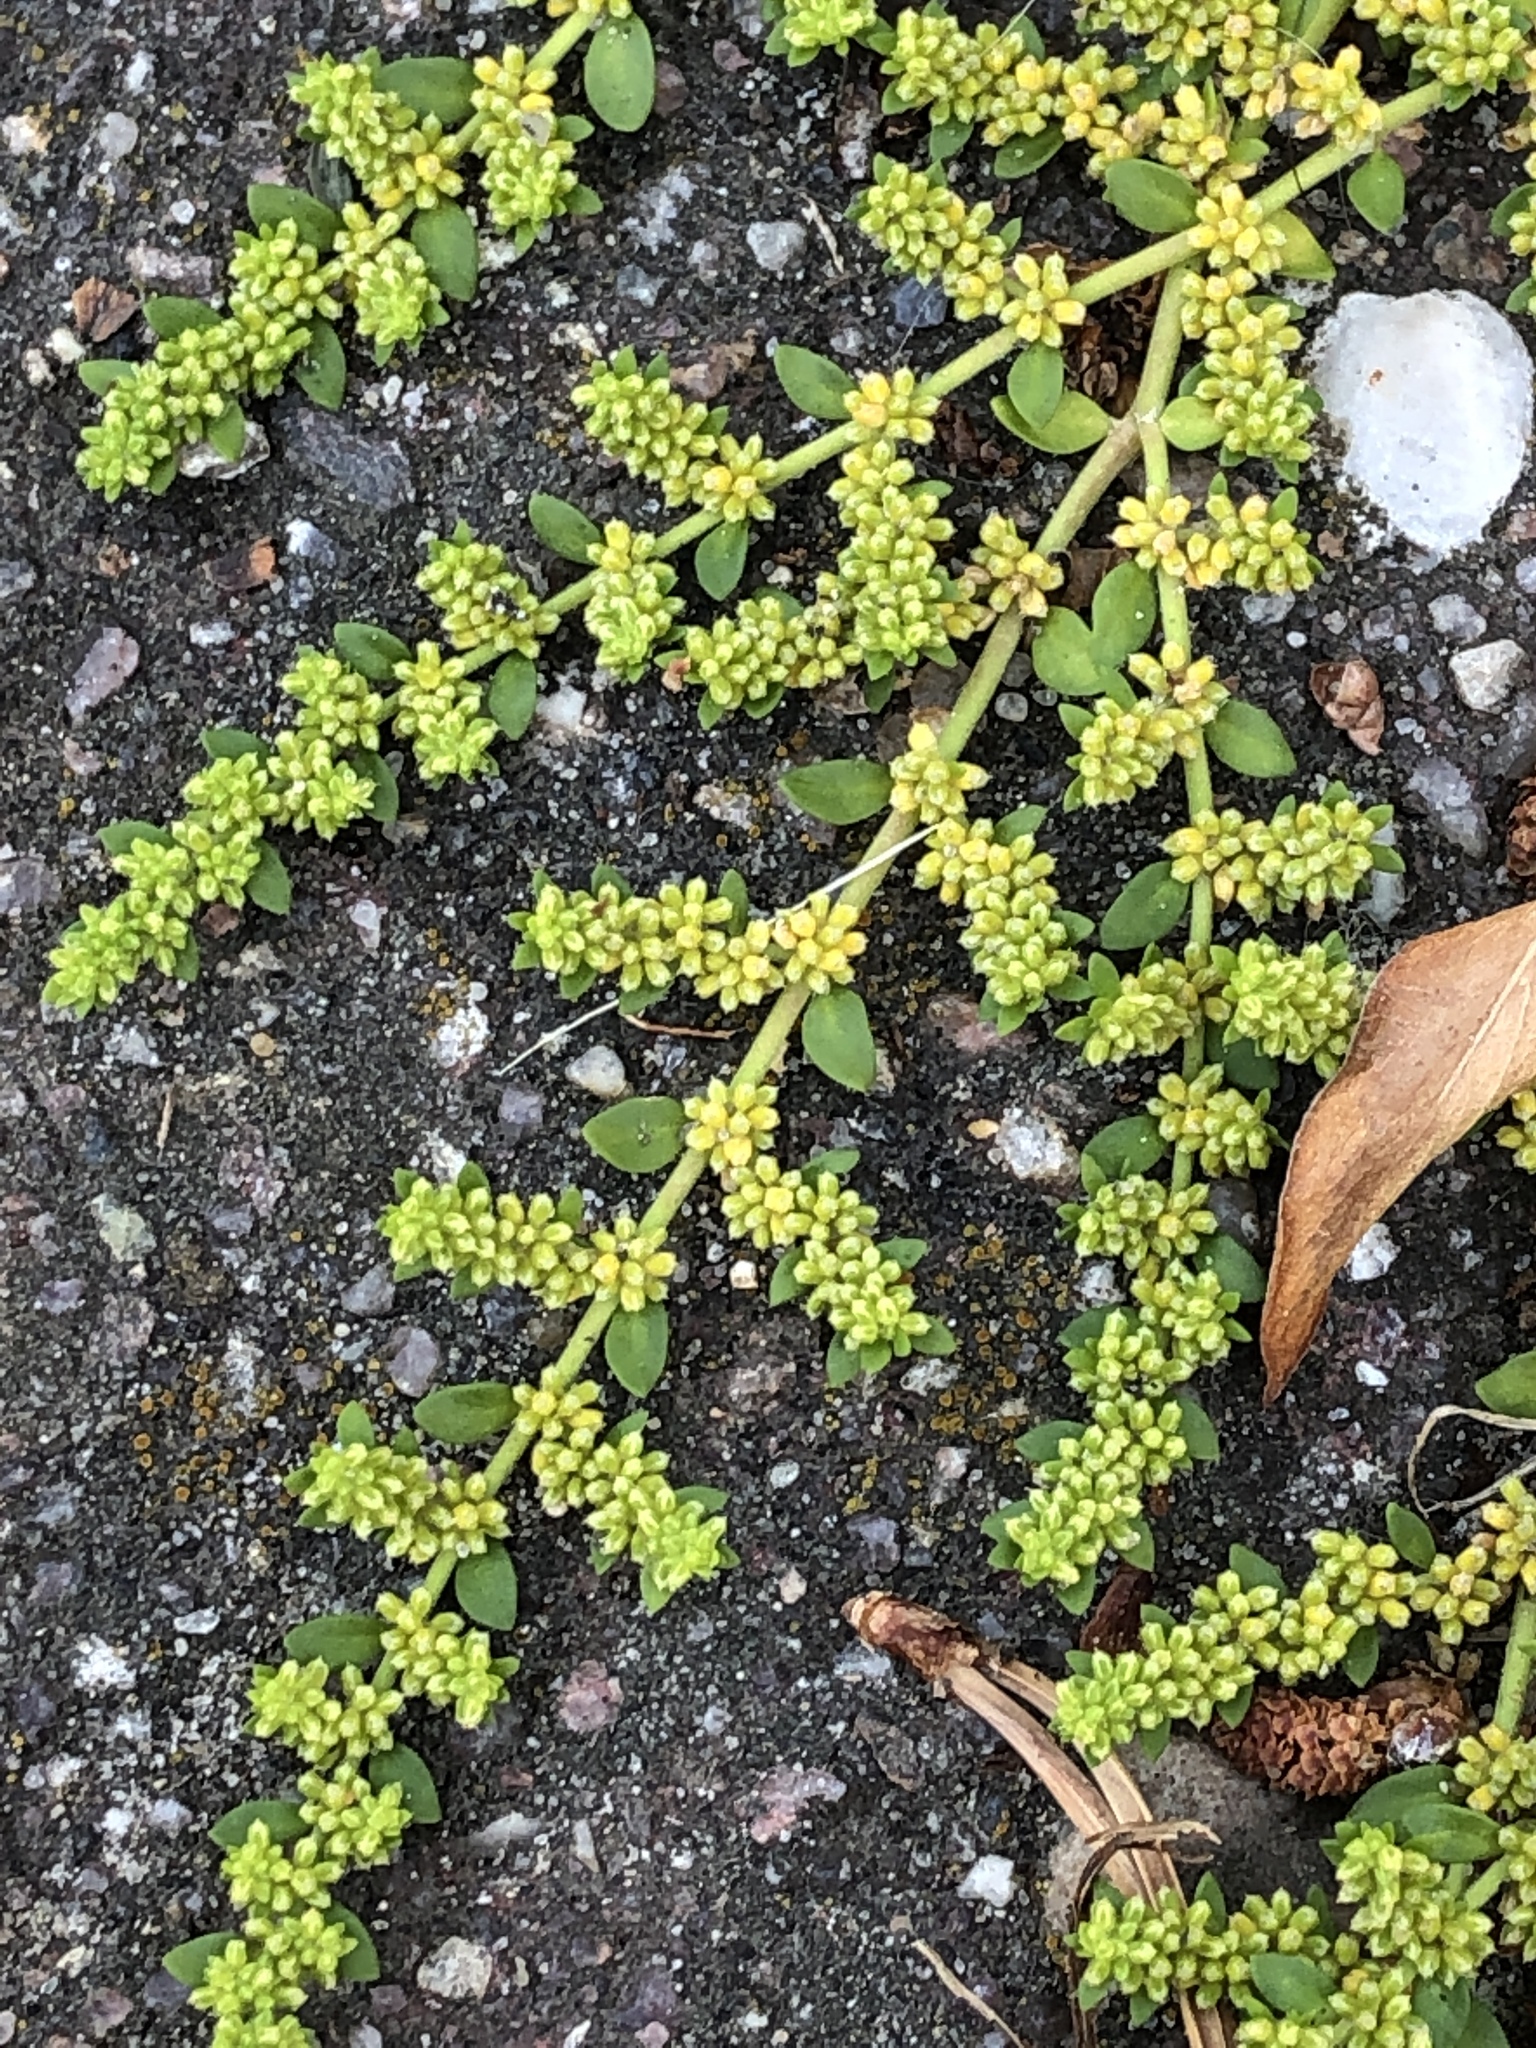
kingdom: Plantae
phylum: Tracheophyta
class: Magnoliopsida
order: Caryophyllales
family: Caryophyllaceae
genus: Herniaria
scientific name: Herniaria glabra
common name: Smooth rupturewort
